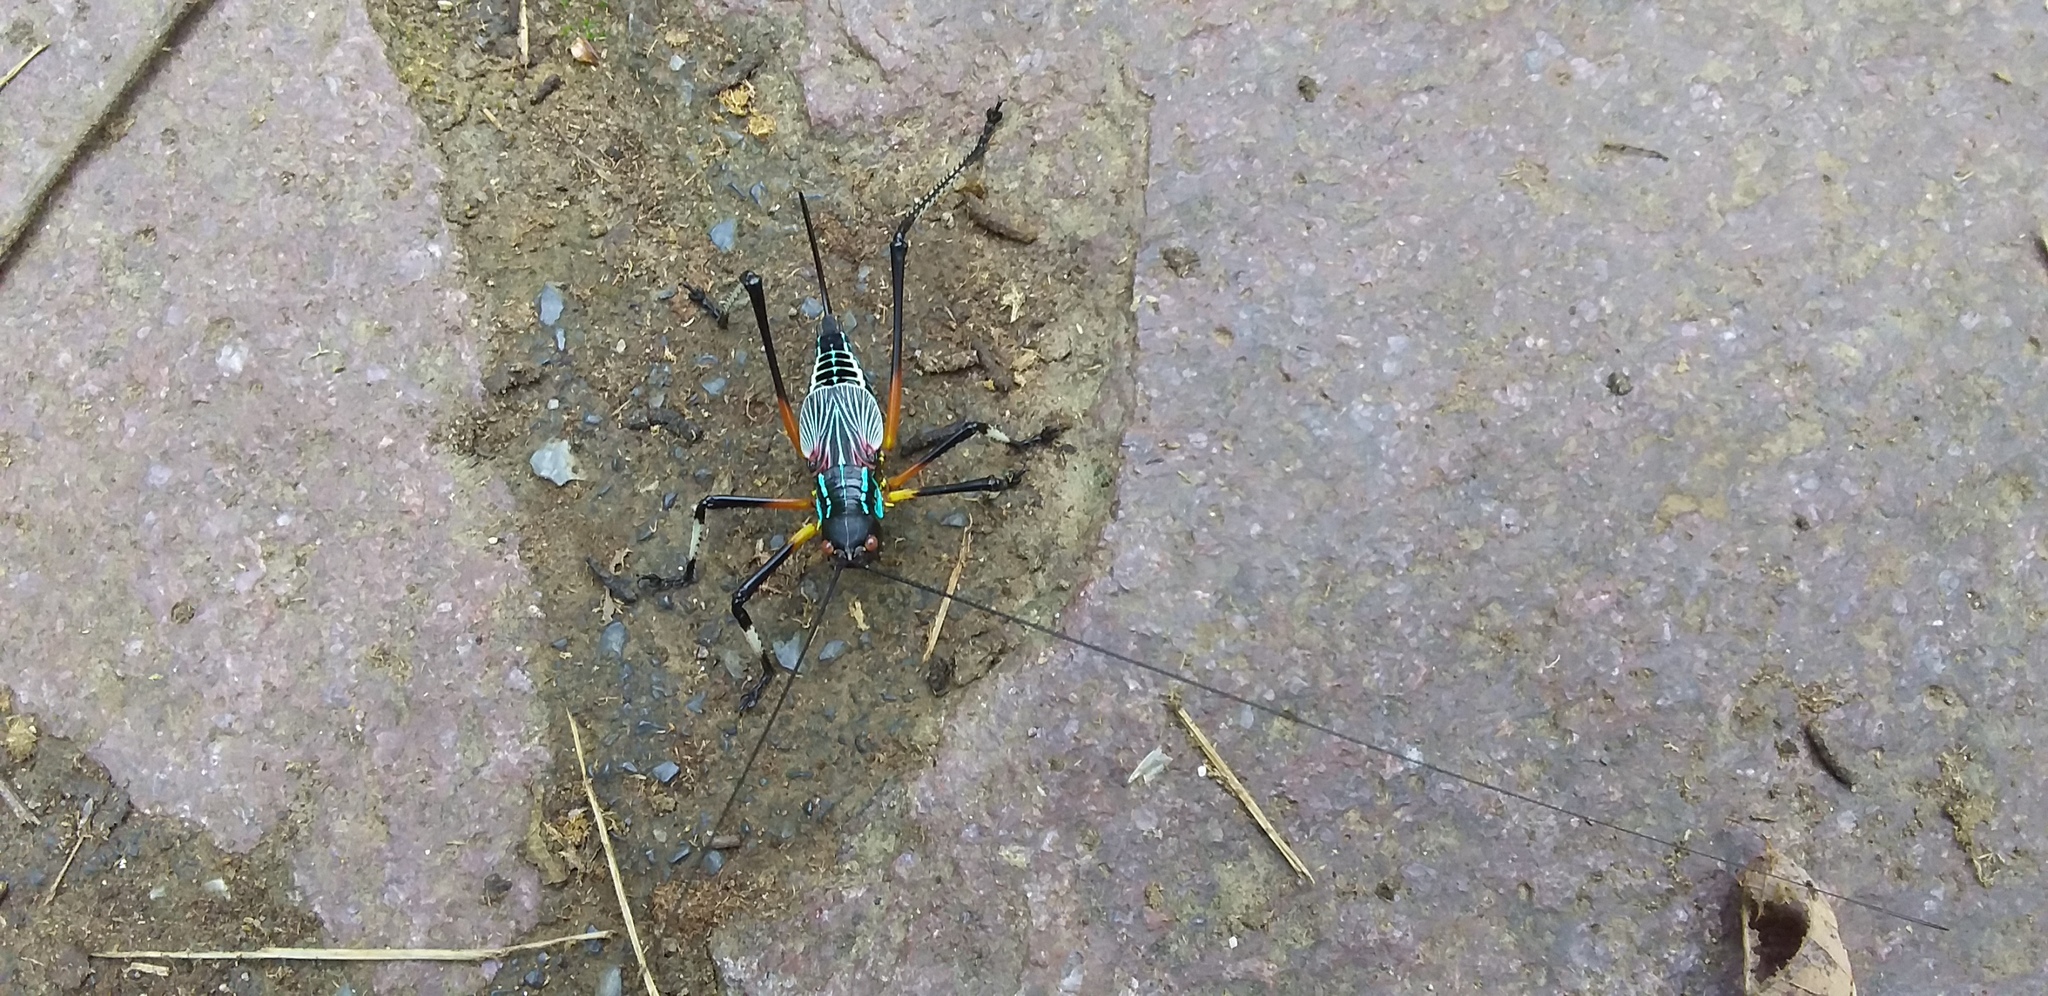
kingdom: Animalia
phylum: Arthropoda
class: Insecta
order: Orthoptera
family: Tettigoniidae
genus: Pterophylla
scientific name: Pterophylla beltrani
